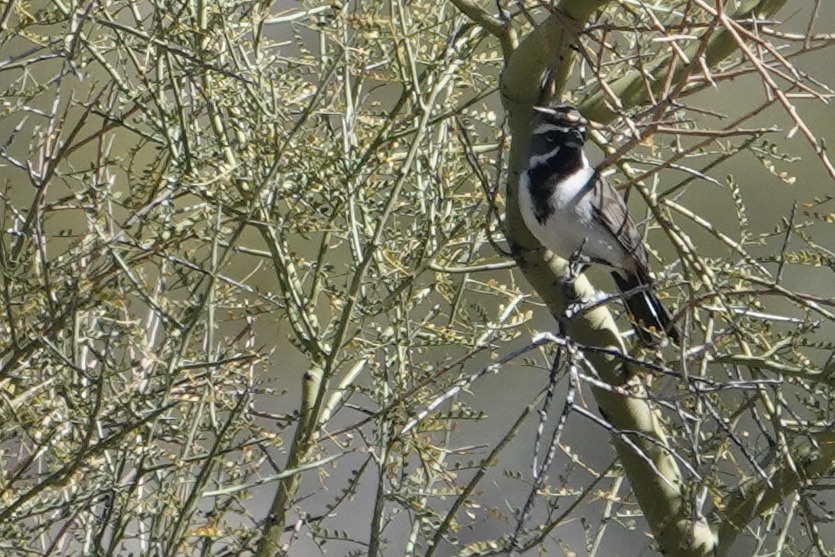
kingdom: Animalia
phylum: Chordata
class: Aves
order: Passeriformes
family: Passerellidae
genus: Amphispiza
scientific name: Amphispiza bilineata
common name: Black-throated sparrow
